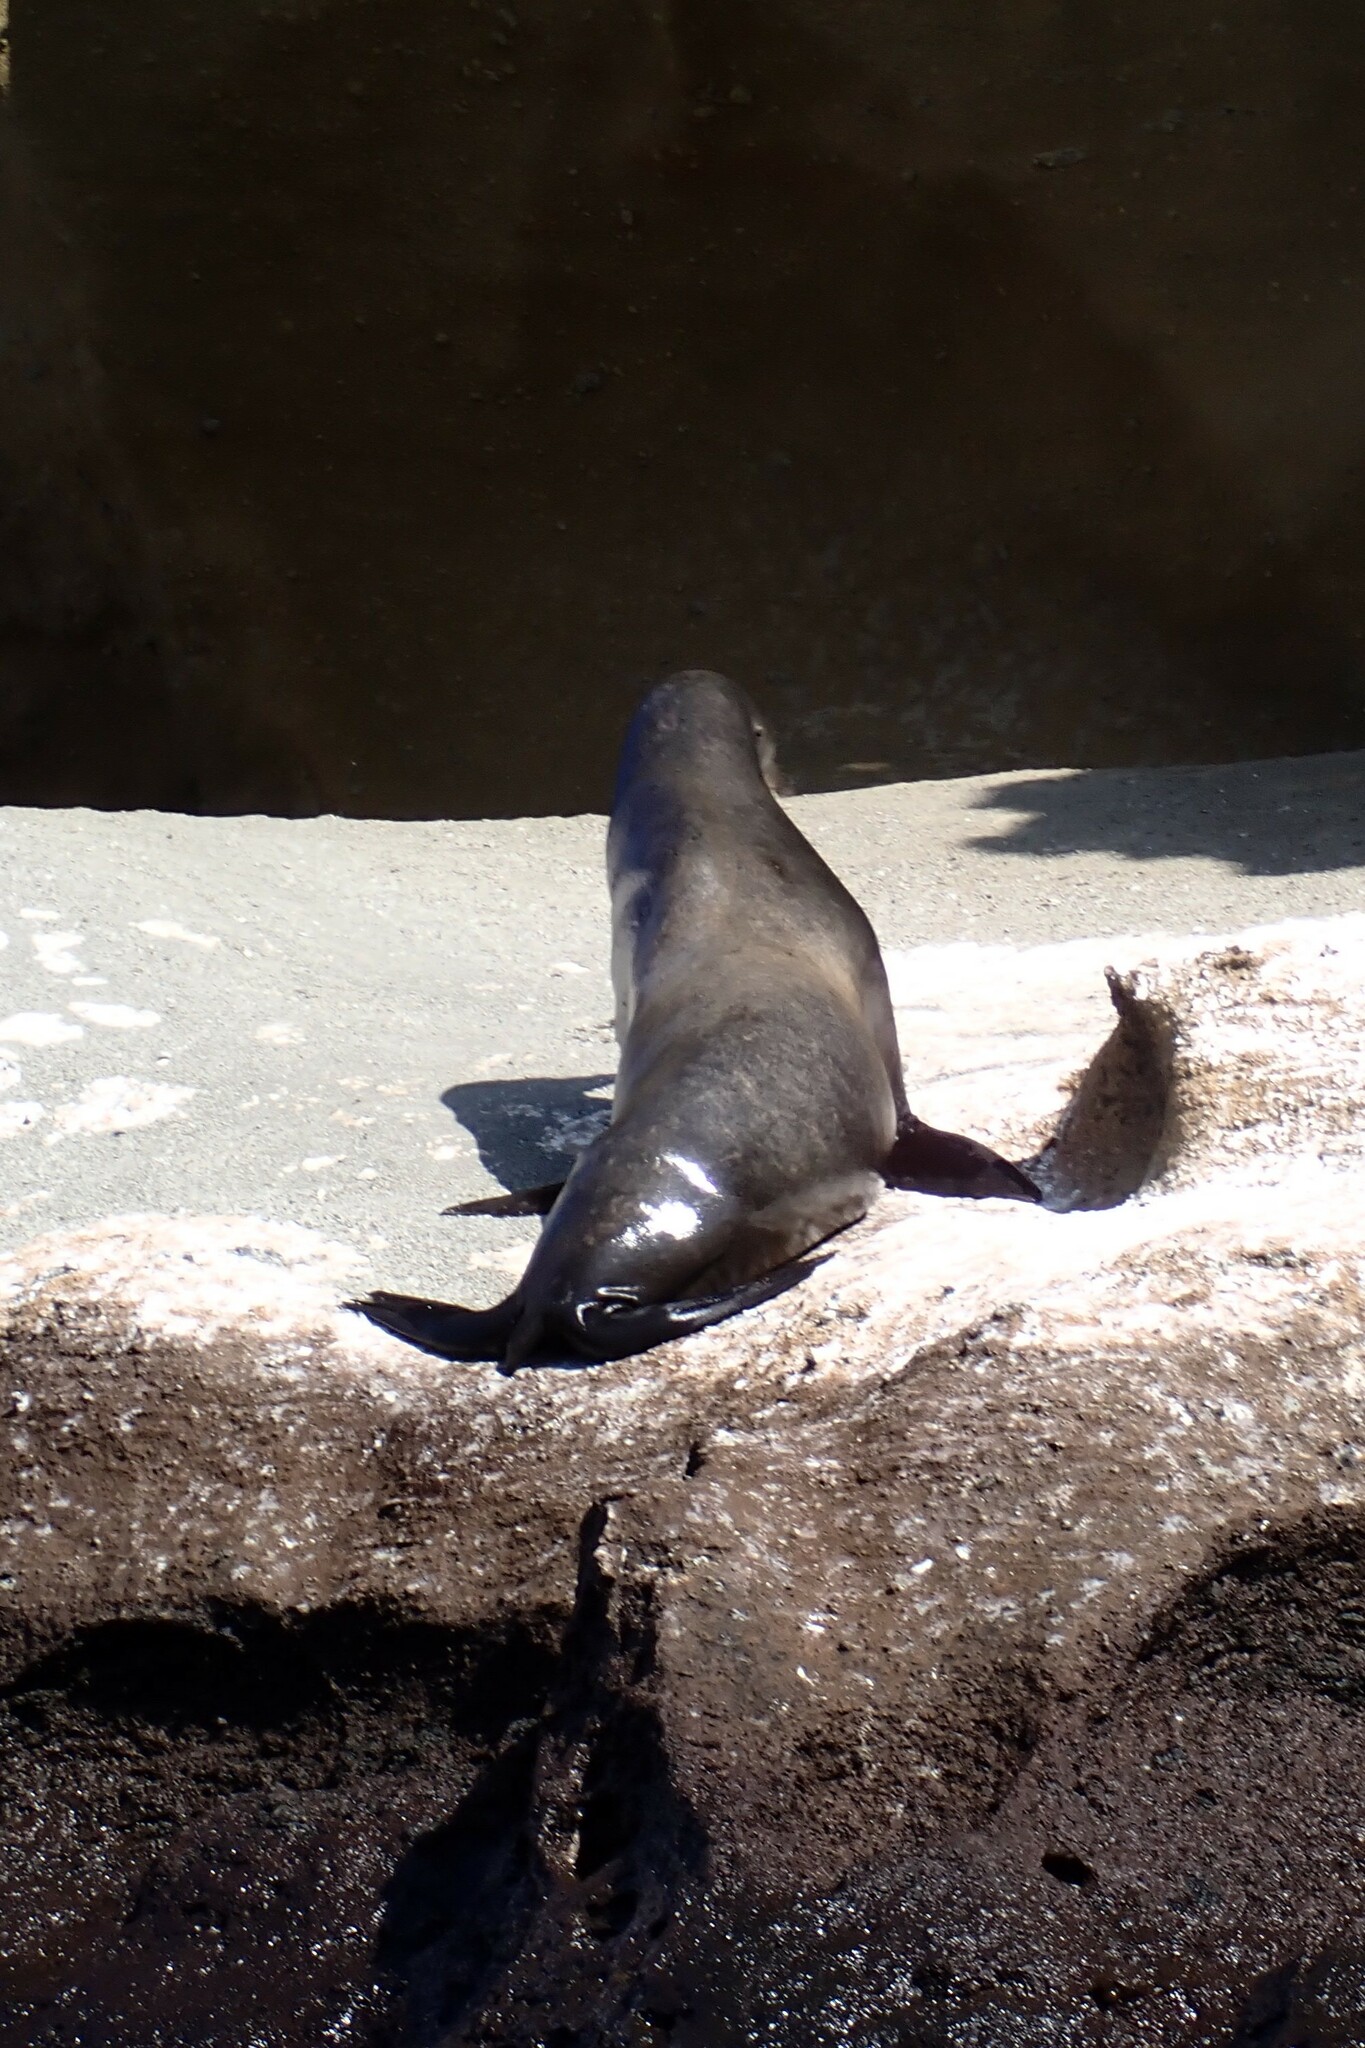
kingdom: Animalia
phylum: Chordata
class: Mammalia
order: Carnivora
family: Otariidae
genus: Zalophus
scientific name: Zalophus wollebaeki
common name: Galapagos sea lion
